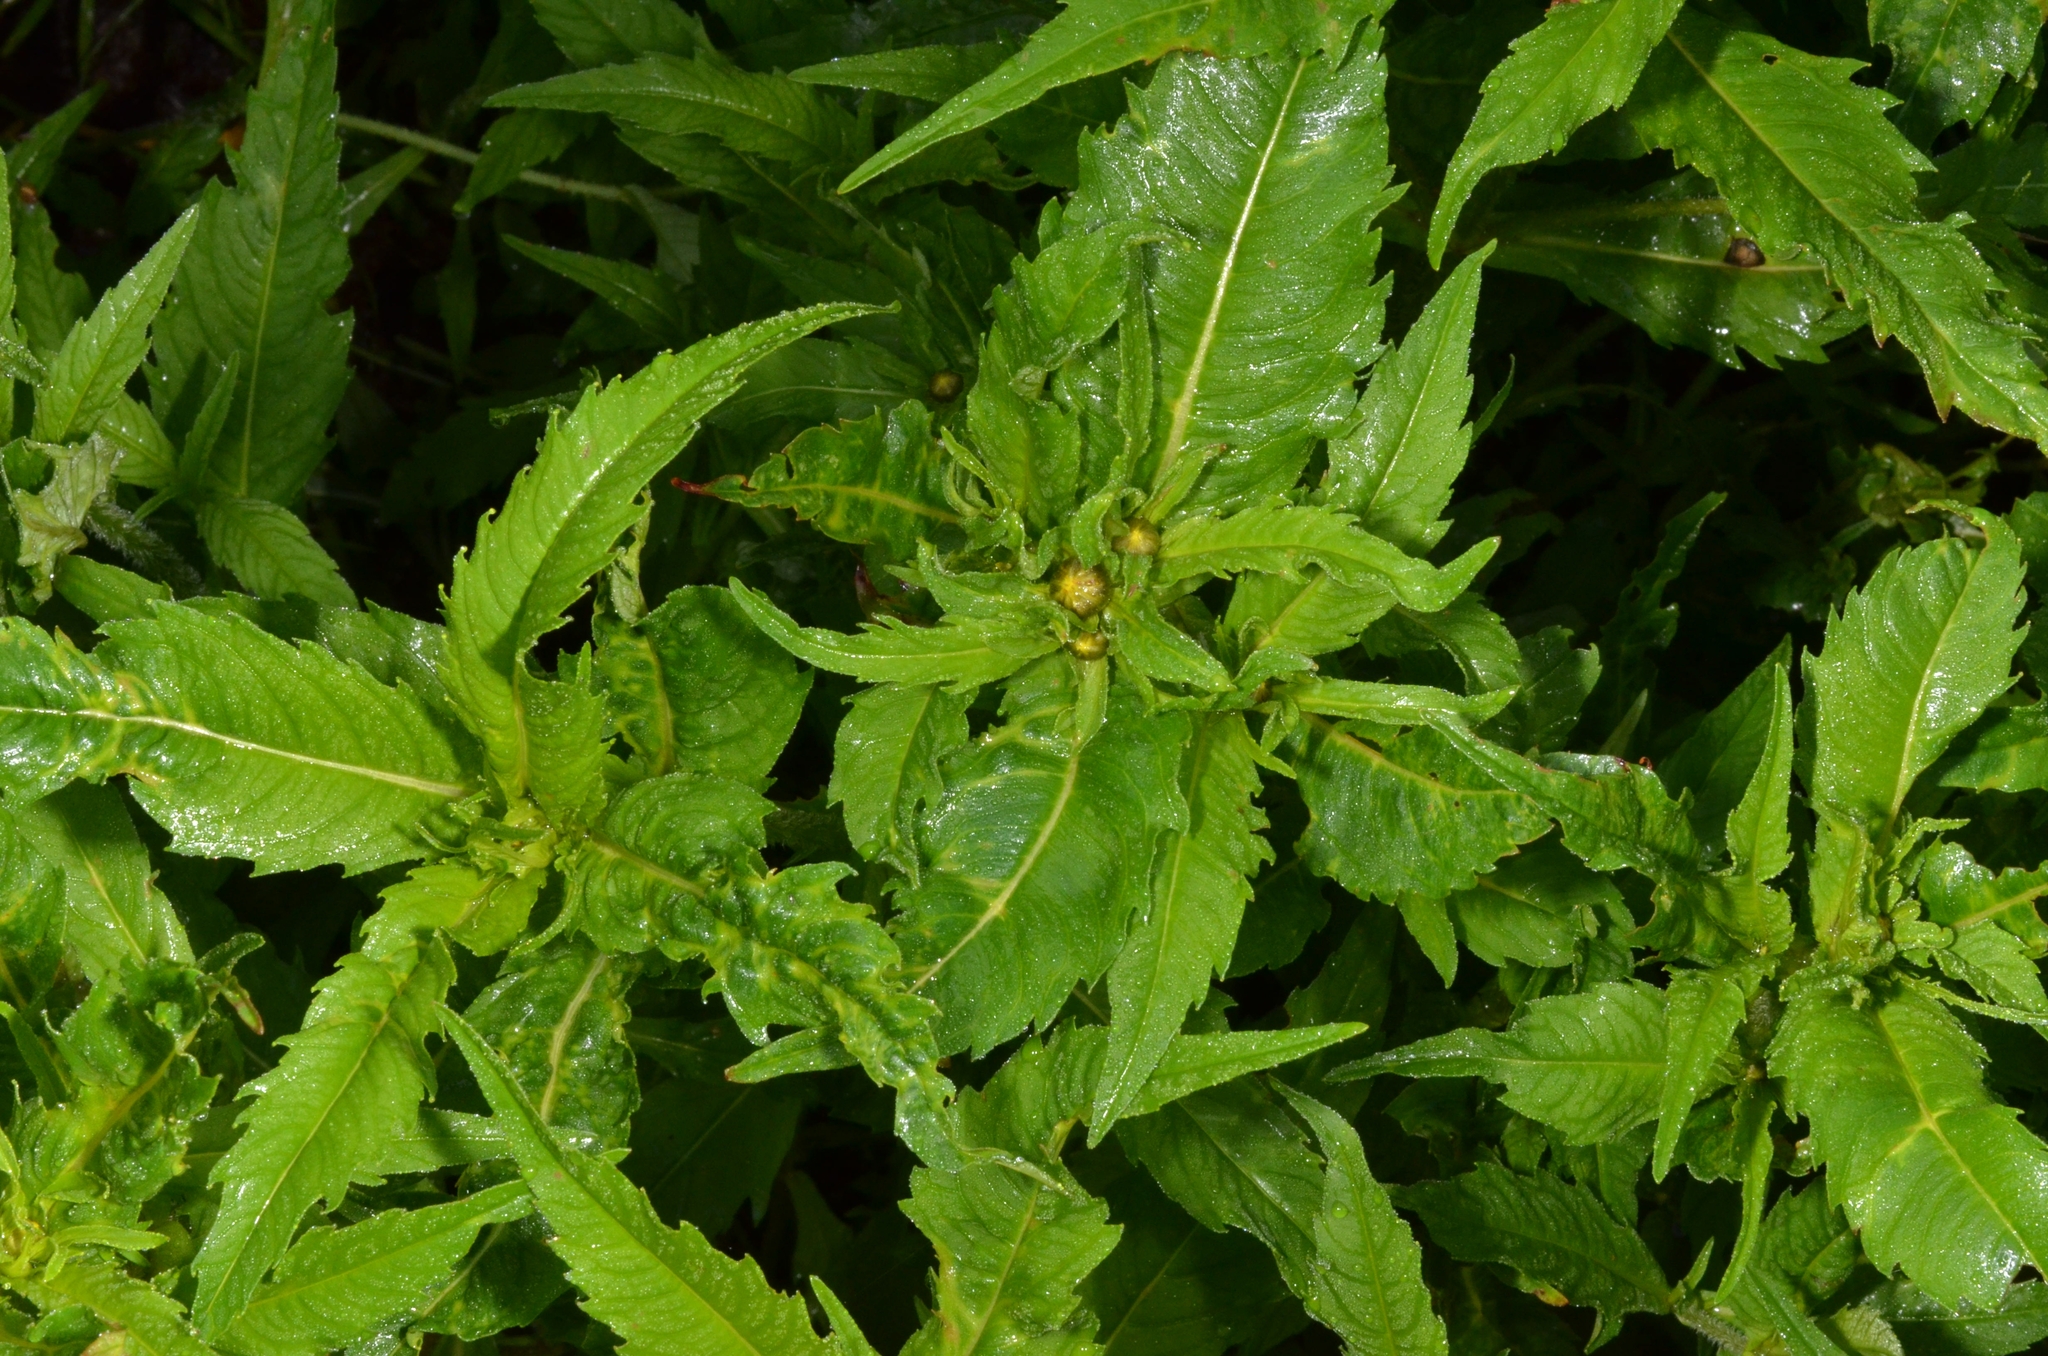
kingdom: Plantae
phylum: Tracheophyta
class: Magnoliopsida
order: Asterales
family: Asteraceae
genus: Bidens
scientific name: Bidens cernua
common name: Nodding bur-marigold
